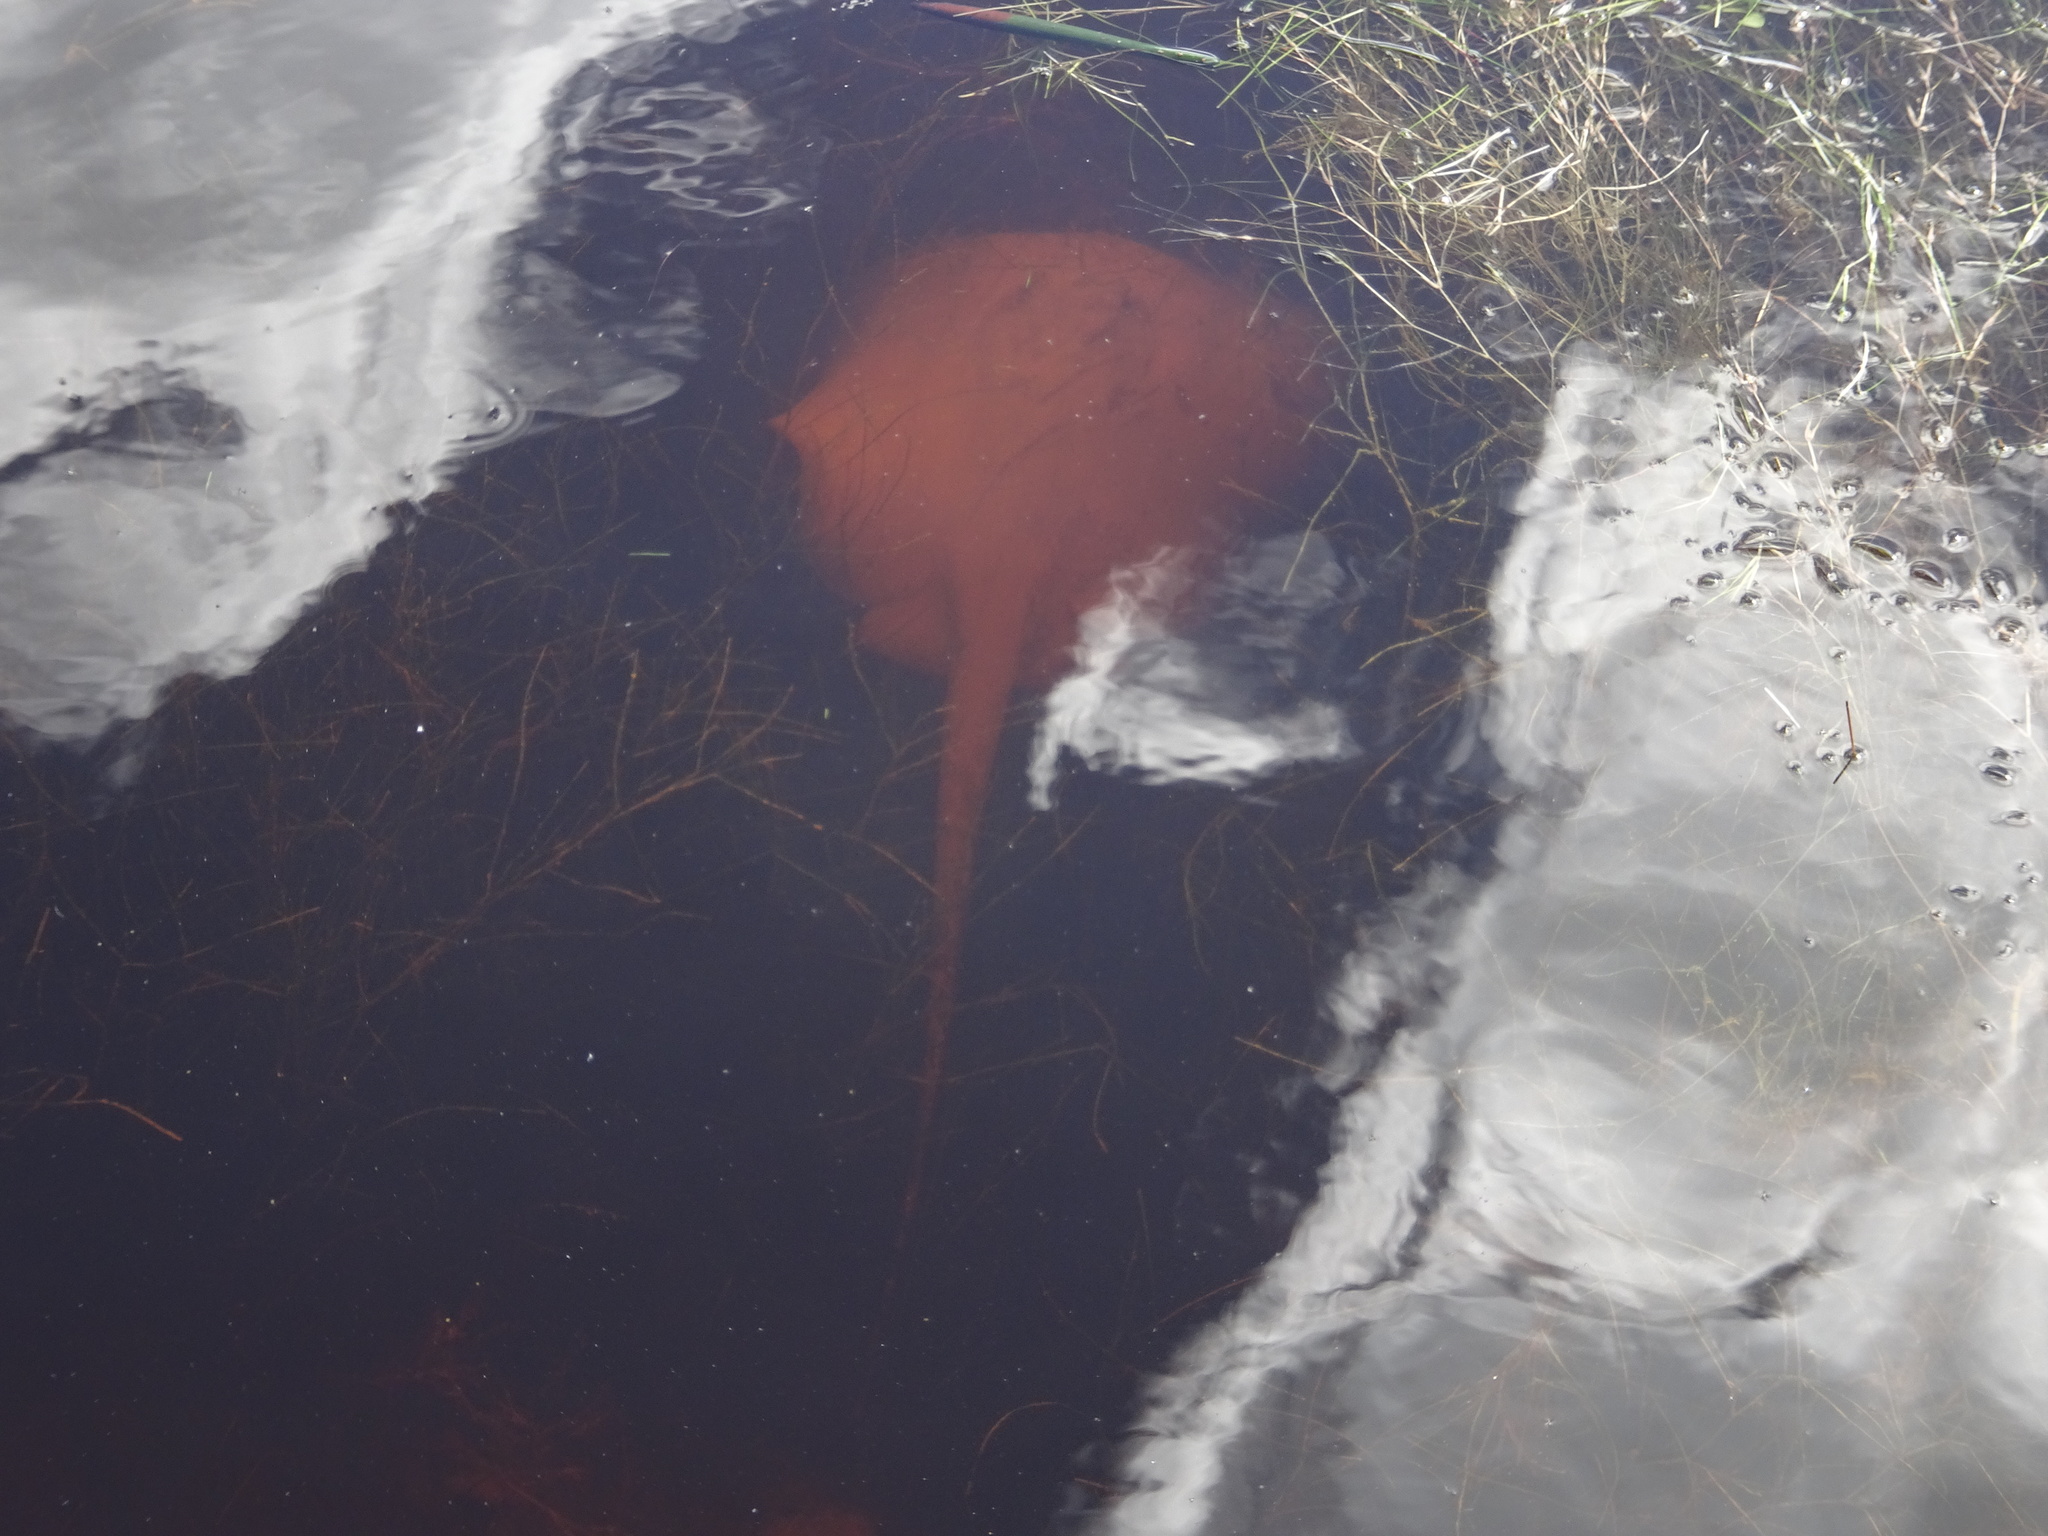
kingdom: Animalia
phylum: Chordata
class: Elasmobranchii
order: Myliobatiformes
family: Potamotrygonidae
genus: Styracura
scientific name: Styracura schmardae
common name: Atlantic chupare
